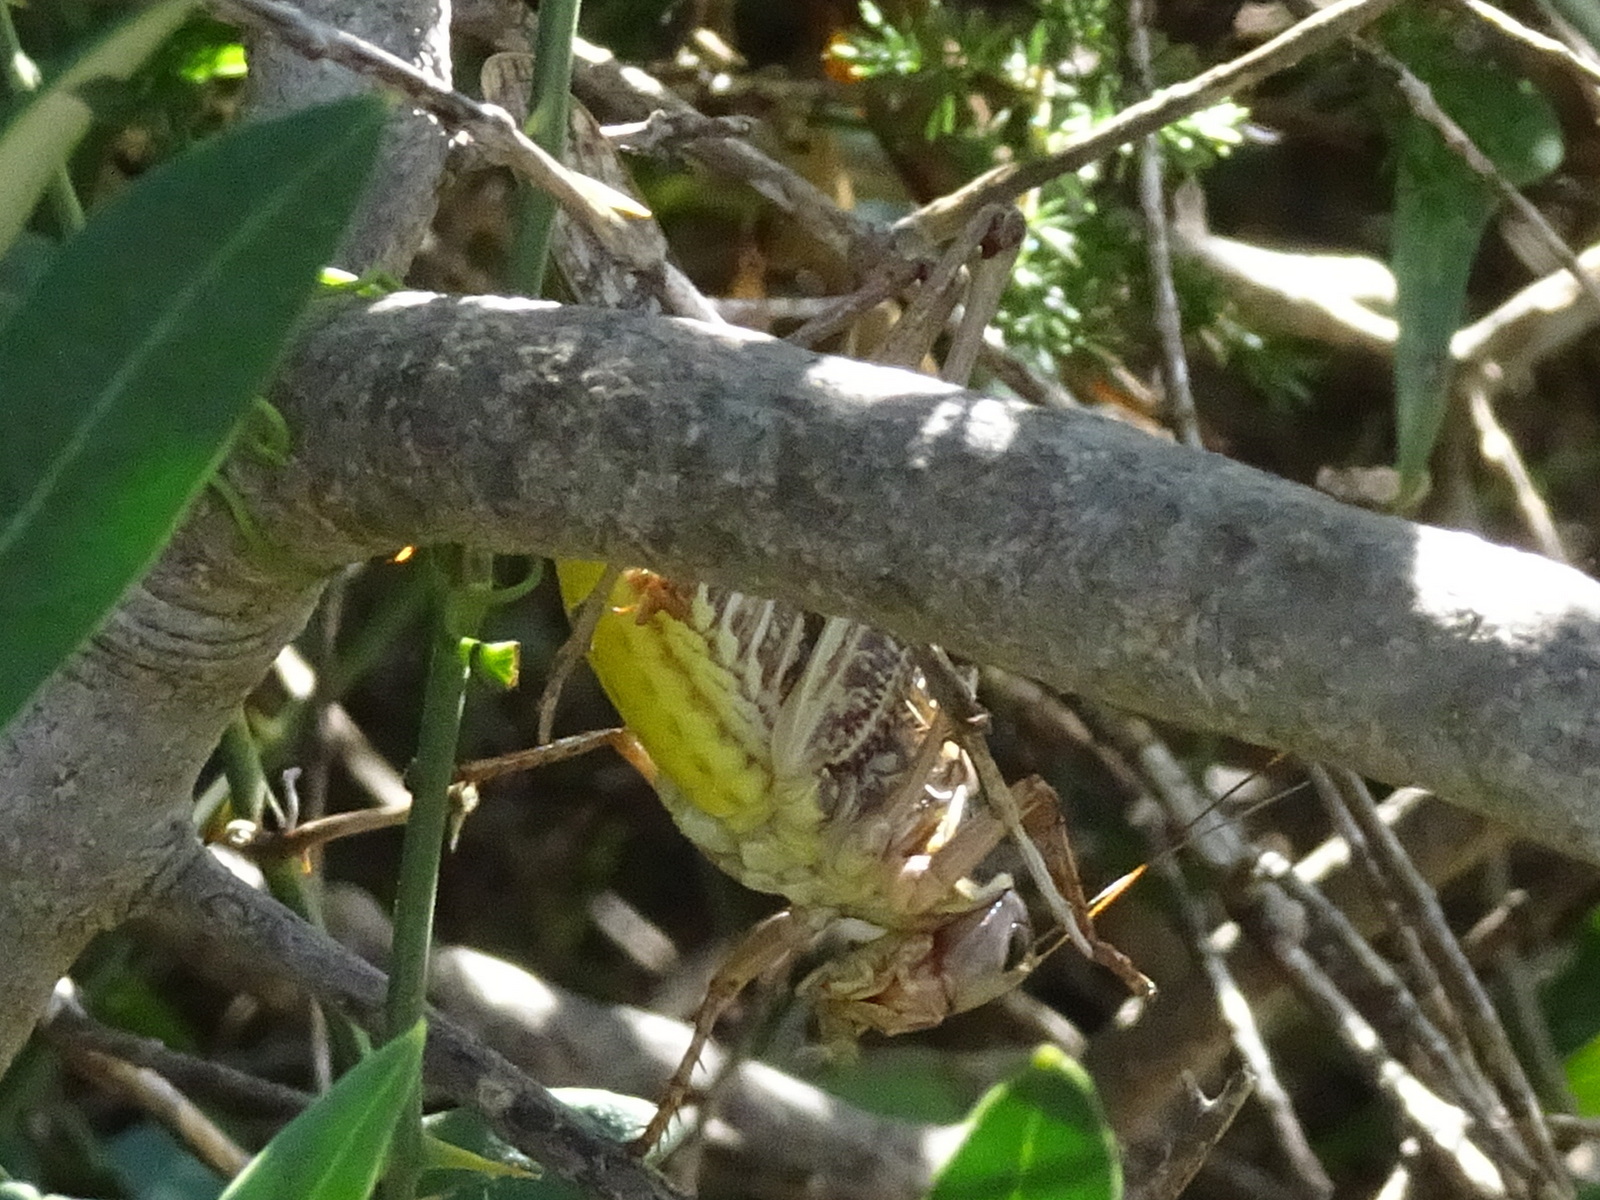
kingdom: Animalia
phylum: Arthropoda
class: Insecta
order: Orthoptera
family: Tettigoniidae
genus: Decticus
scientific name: Decticus albifrons
